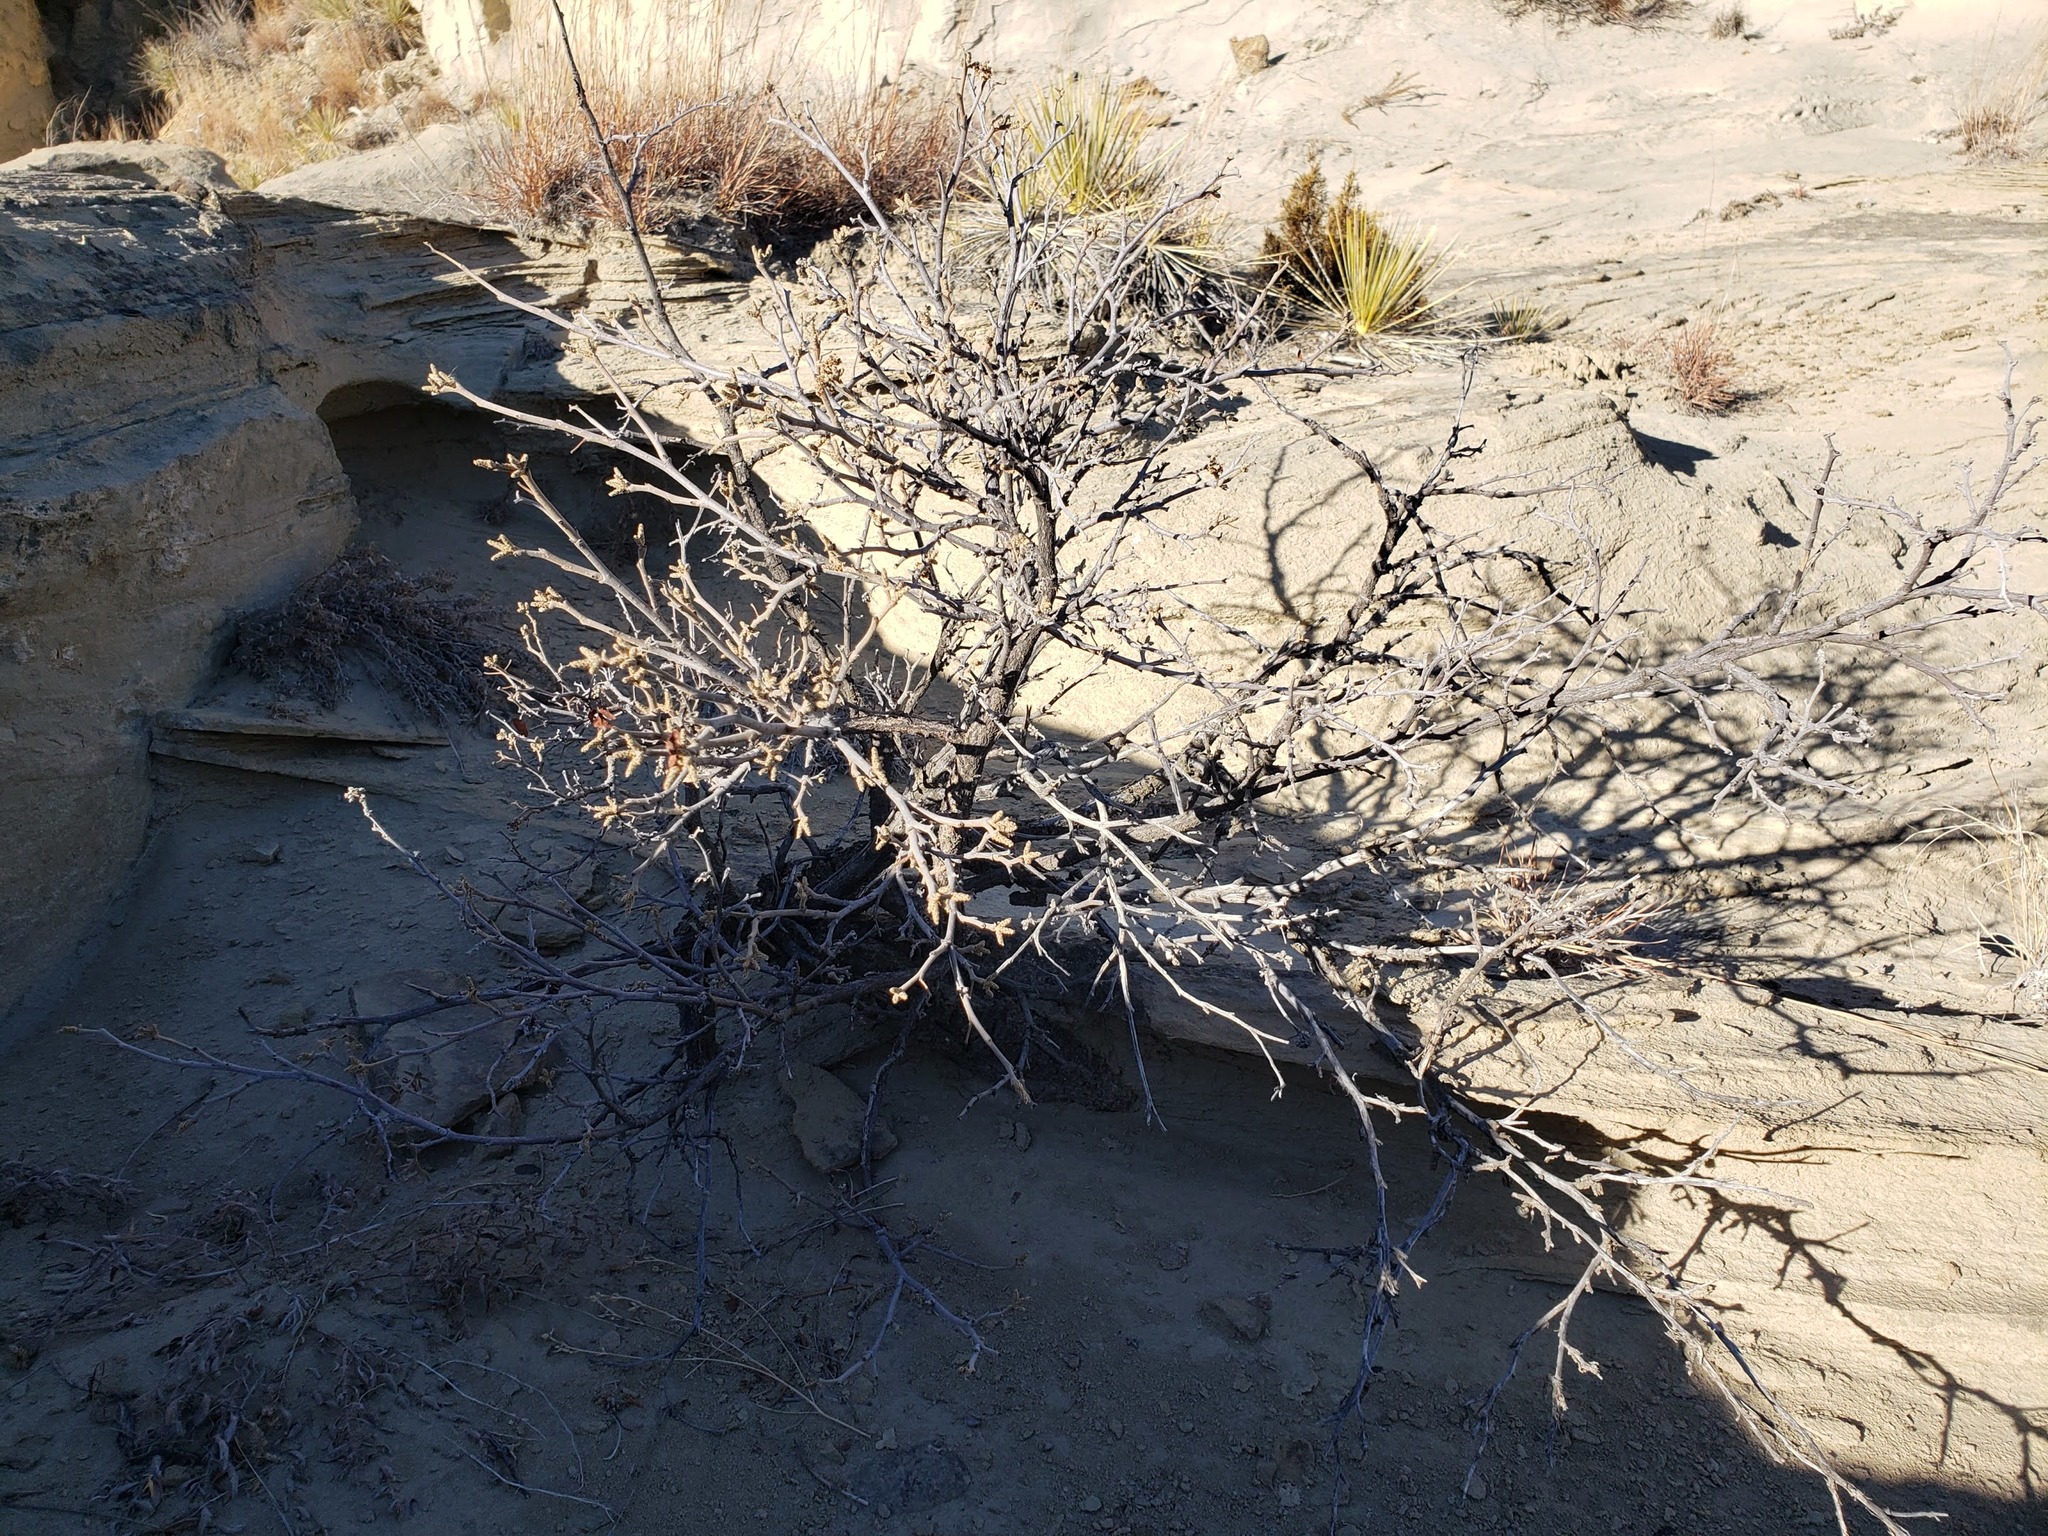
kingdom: Plantae
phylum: Tracheophyta
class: Magnoliopsida
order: Sapindales
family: Anacardiaceae
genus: Rhus
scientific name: Rhus aromatica
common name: Aromatic sumac
